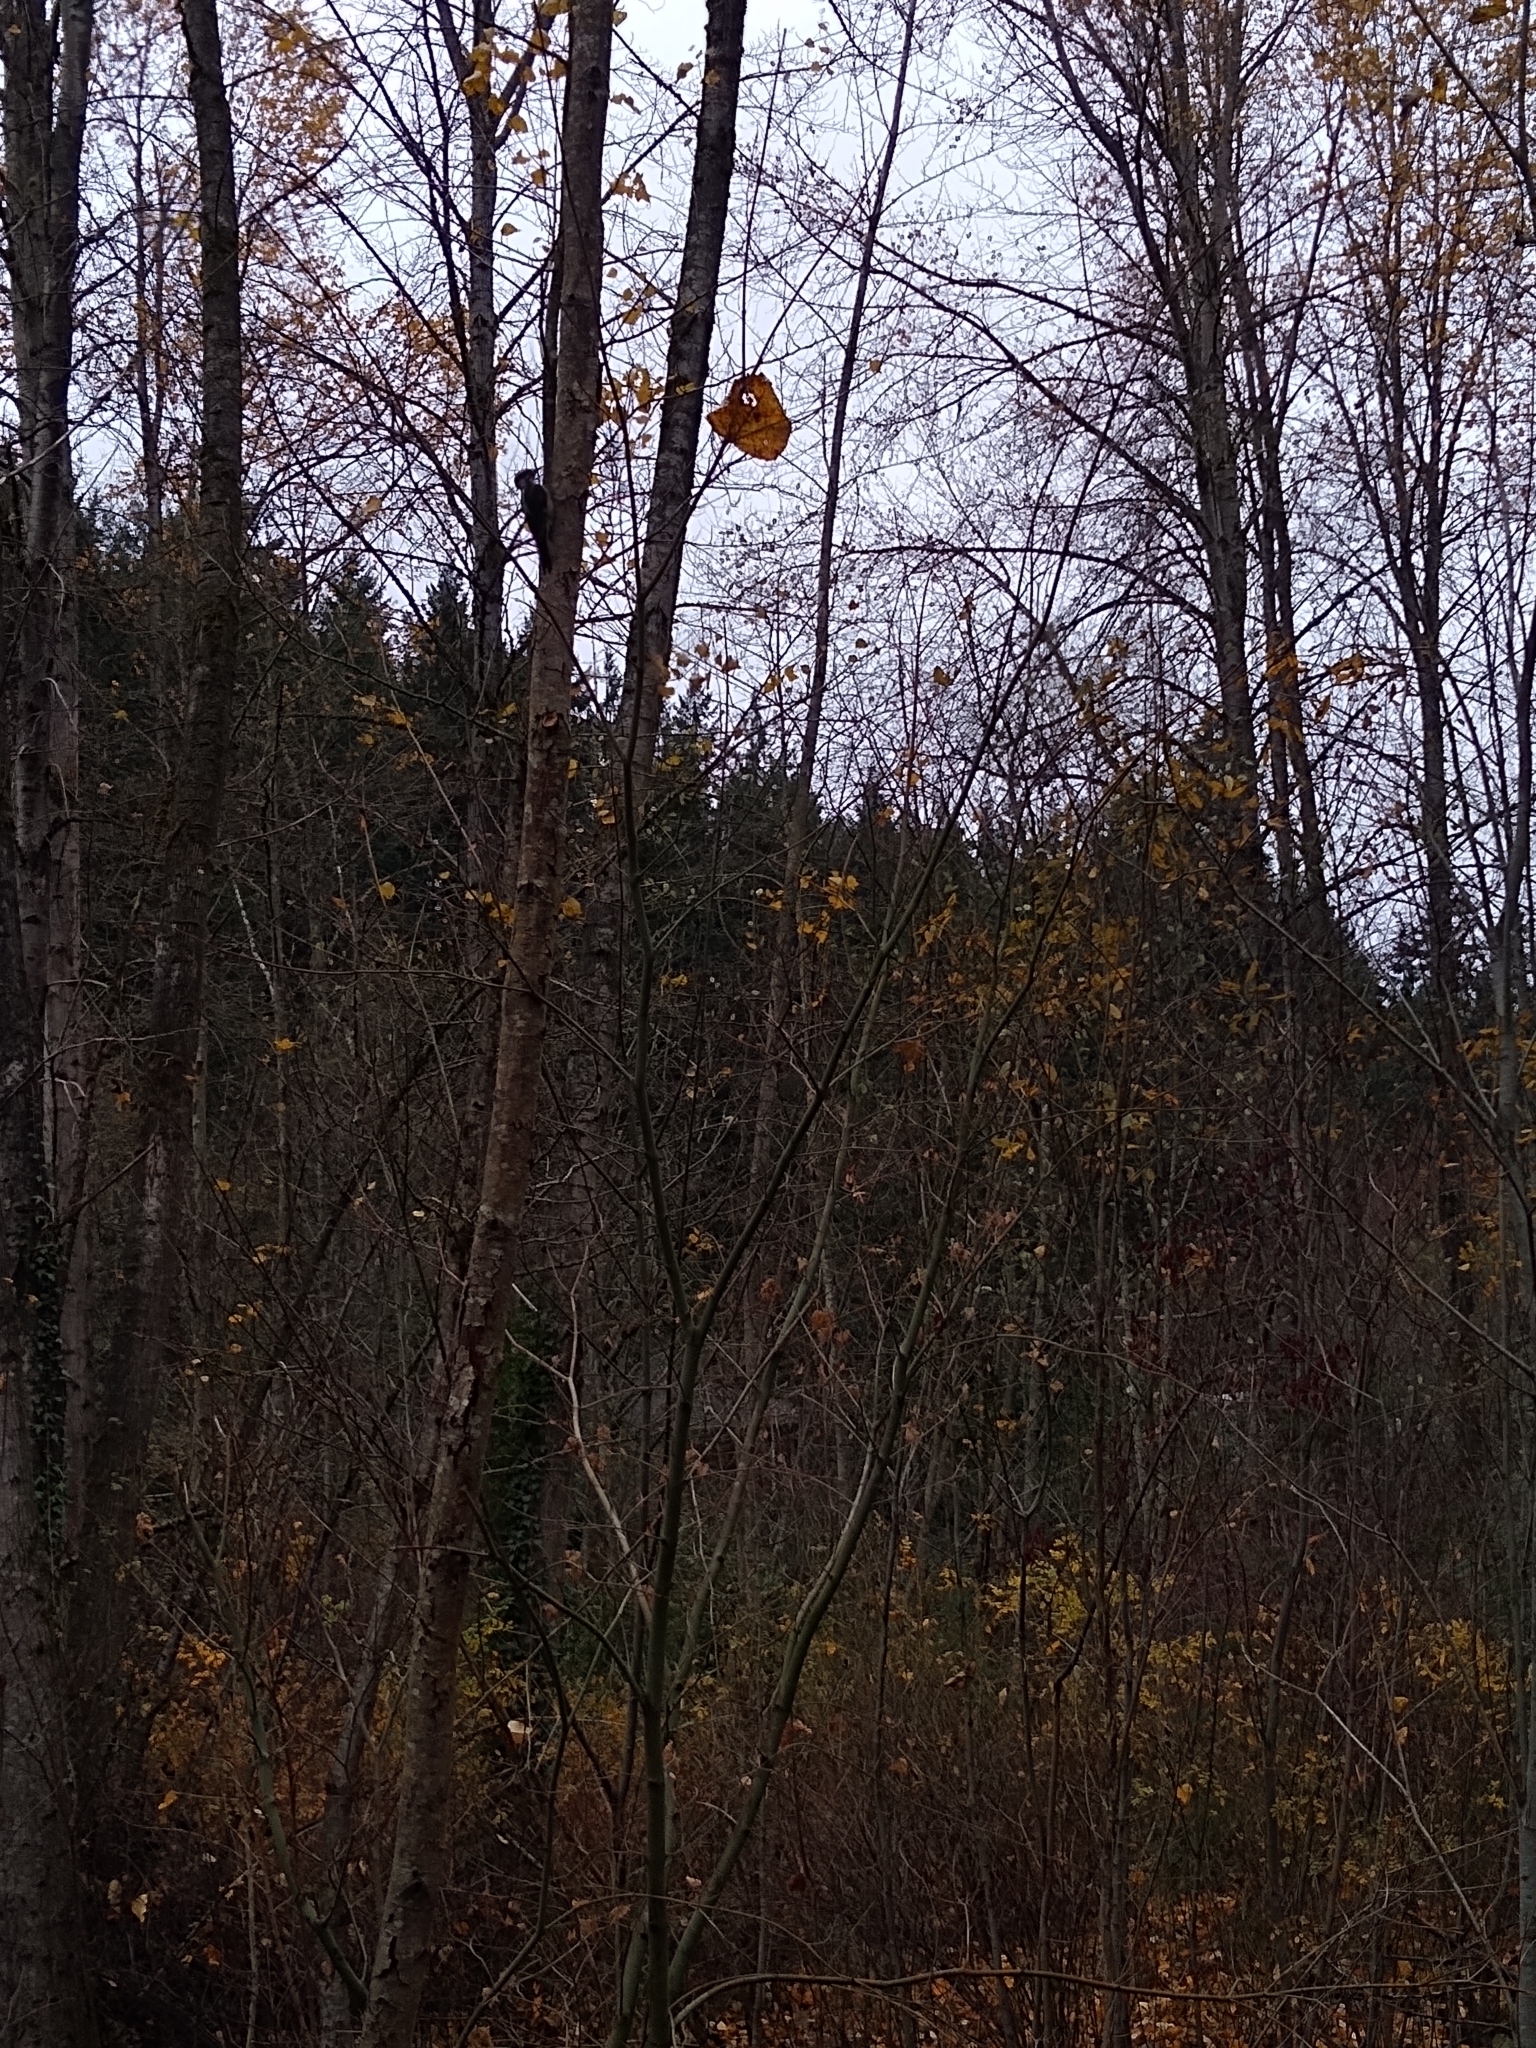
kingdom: Animalia
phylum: Chordata
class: Aves
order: Piciformes
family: Picidae
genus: Leuconotopicus
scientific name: Leuconotopicus villosus
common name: Hairy woodpecker
